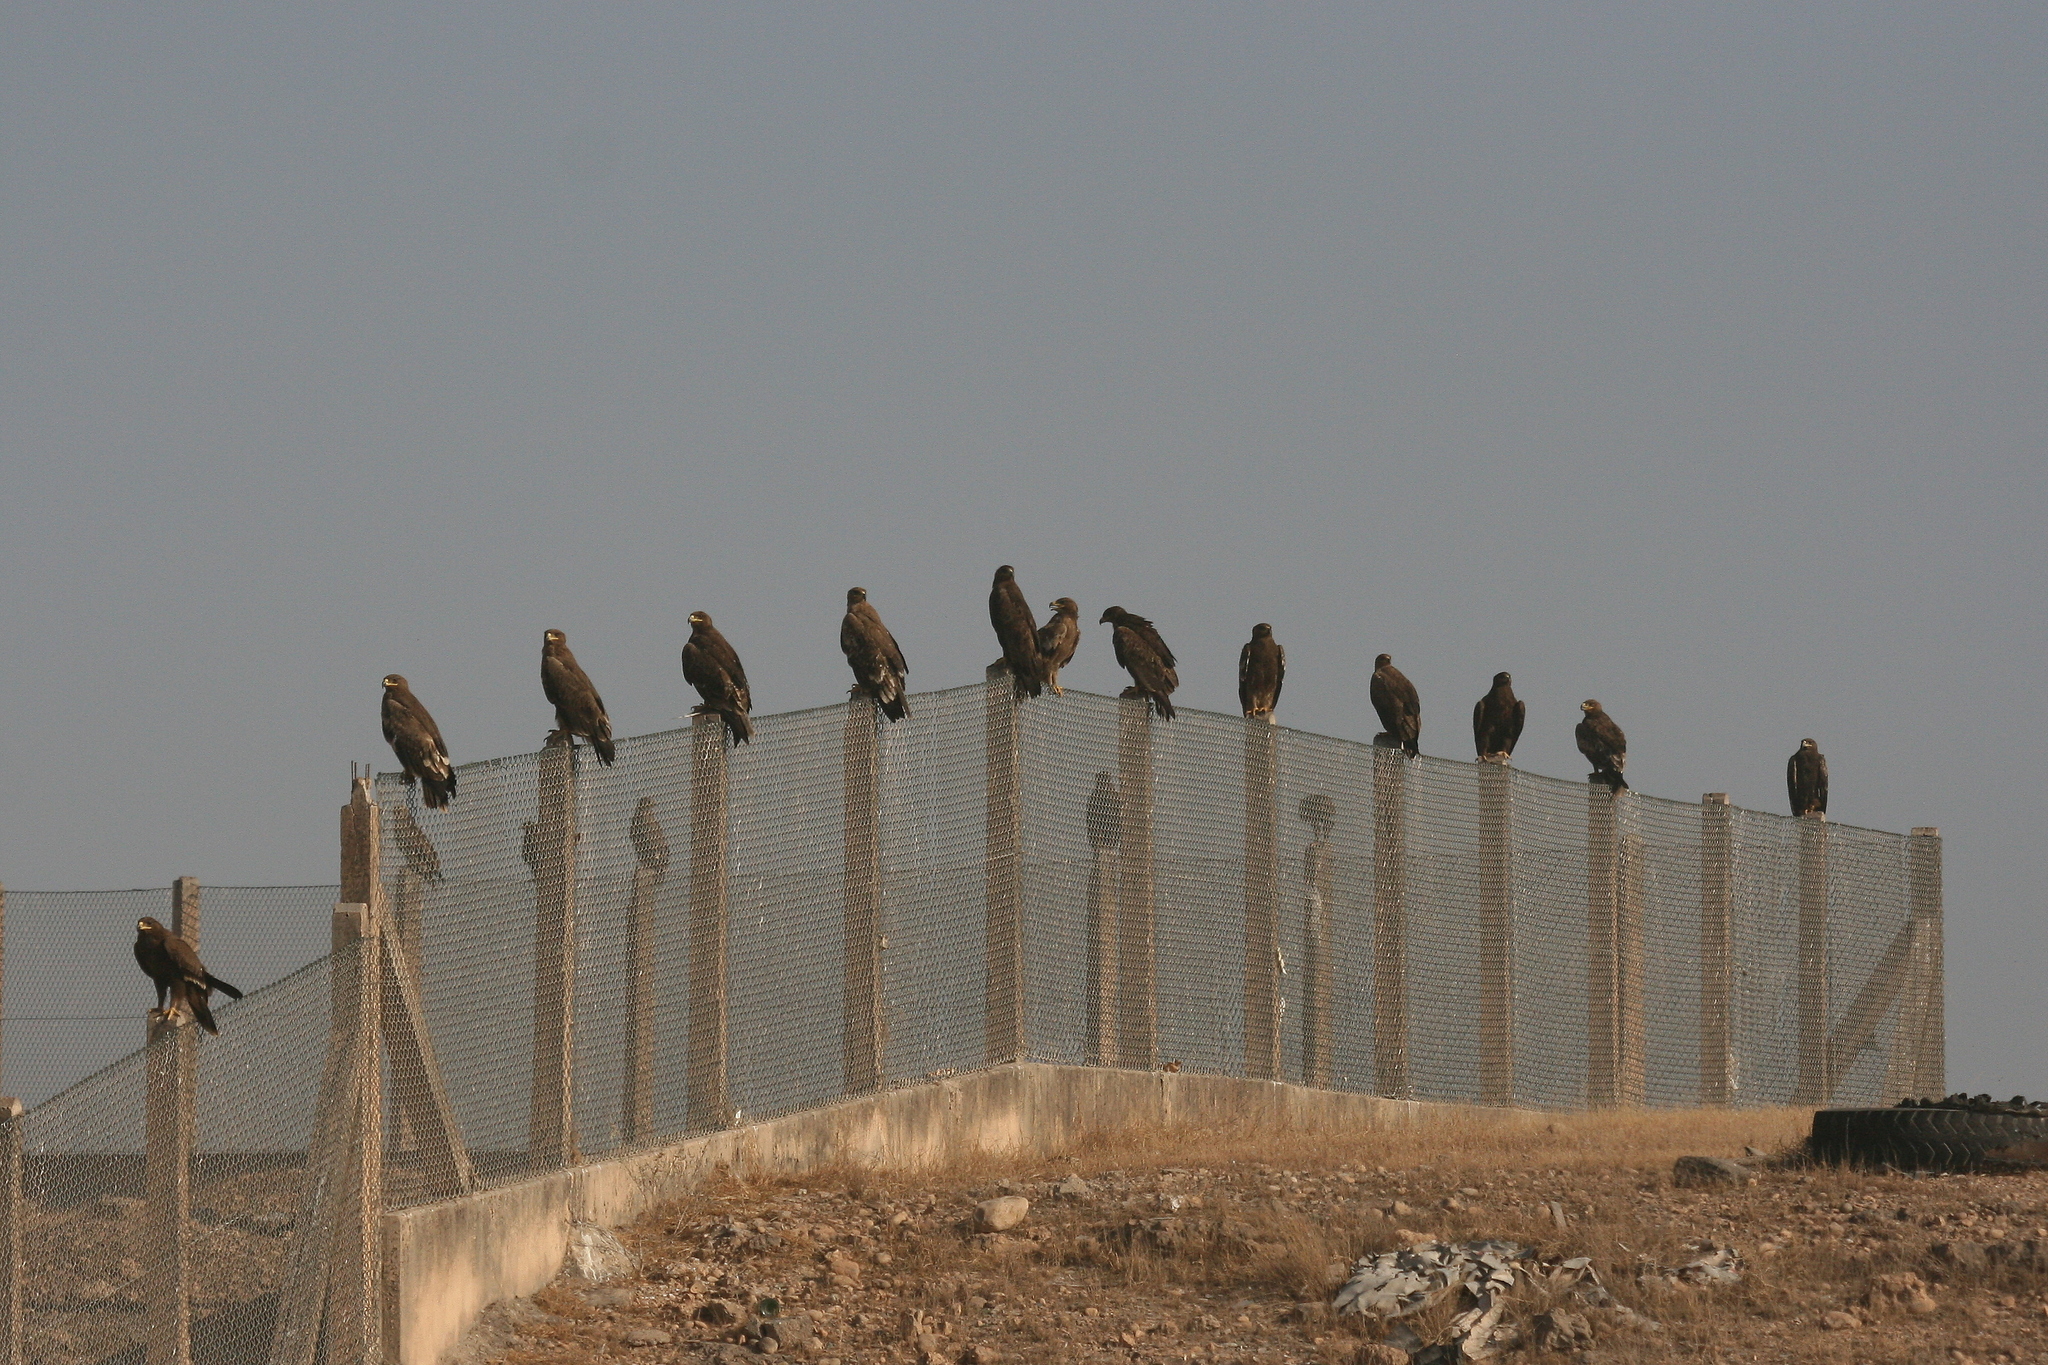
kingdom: Animalia
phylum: Chordata
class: Aves
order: Accipitriformes
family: Accipitridae
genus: Aquila
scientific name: Aquila nipalensis
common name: Steppe eagle
